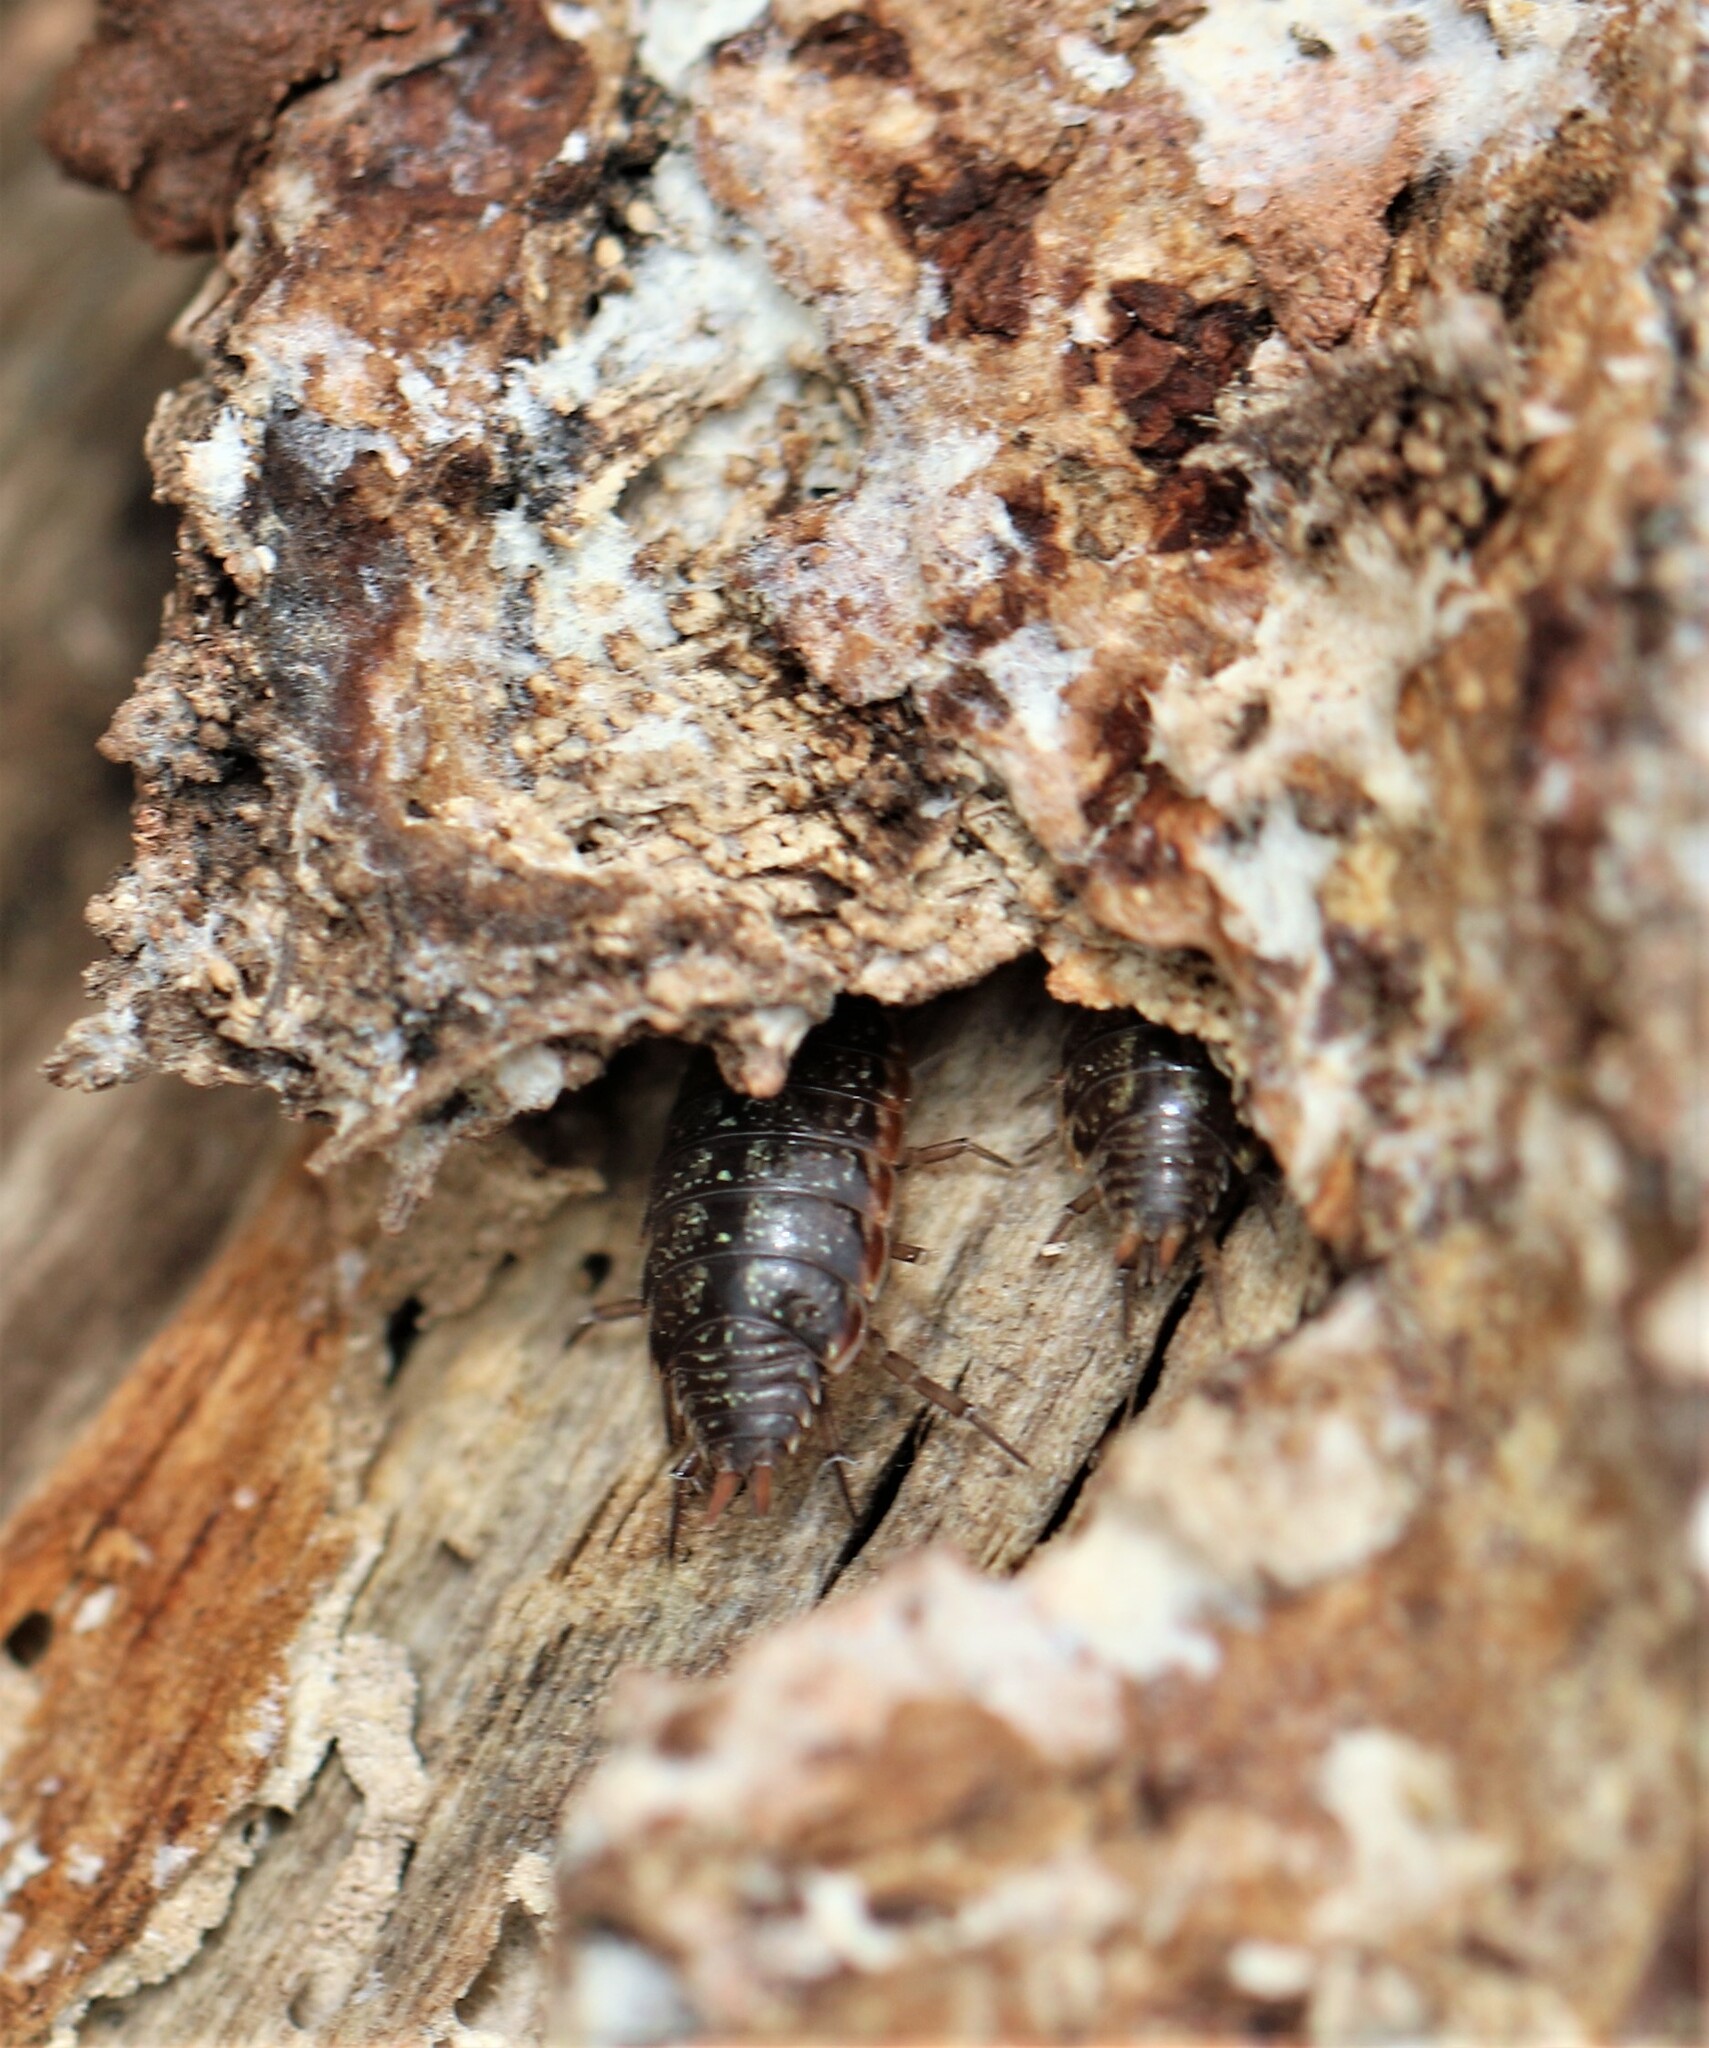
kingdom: Animalia
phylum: Arthropoda
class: Malacostraca
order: Isopoda
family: Philosciidae
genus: Philoscia
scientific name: Philoscia muscorum
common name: Common striped woodlouse
